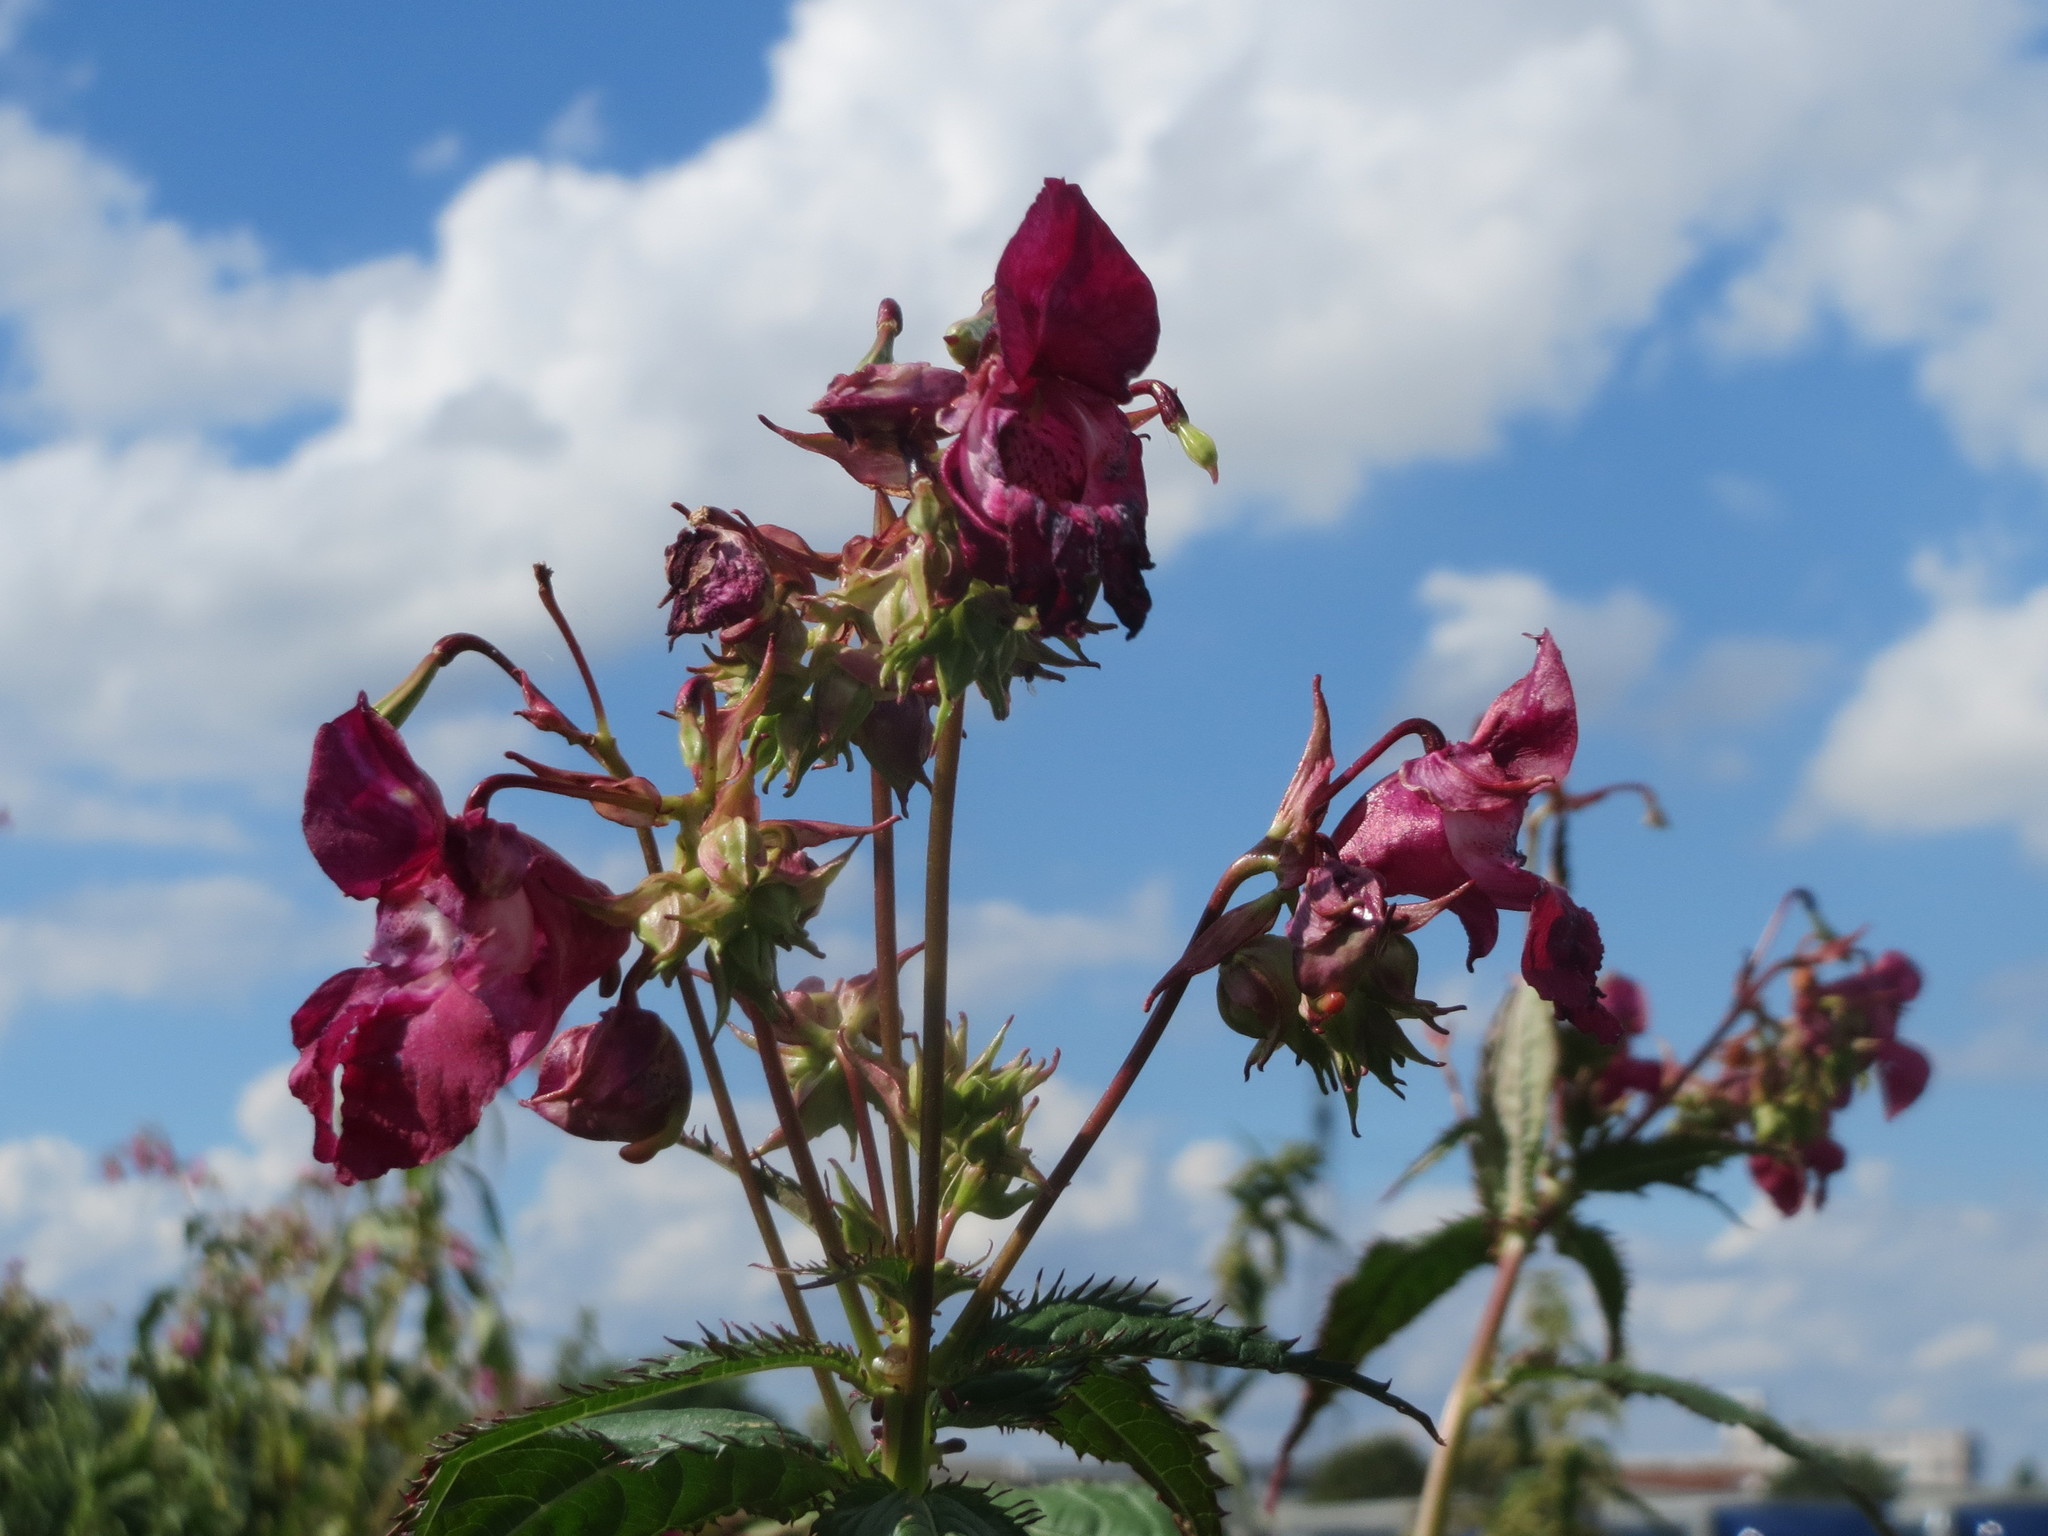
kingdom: Plantae
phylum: Tracheophyta
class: Magnoliopsida
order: Ericales
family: Balsaminaceae
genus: Impatiens
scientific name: Impatiens glandulifera
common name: Himalayan balsam
